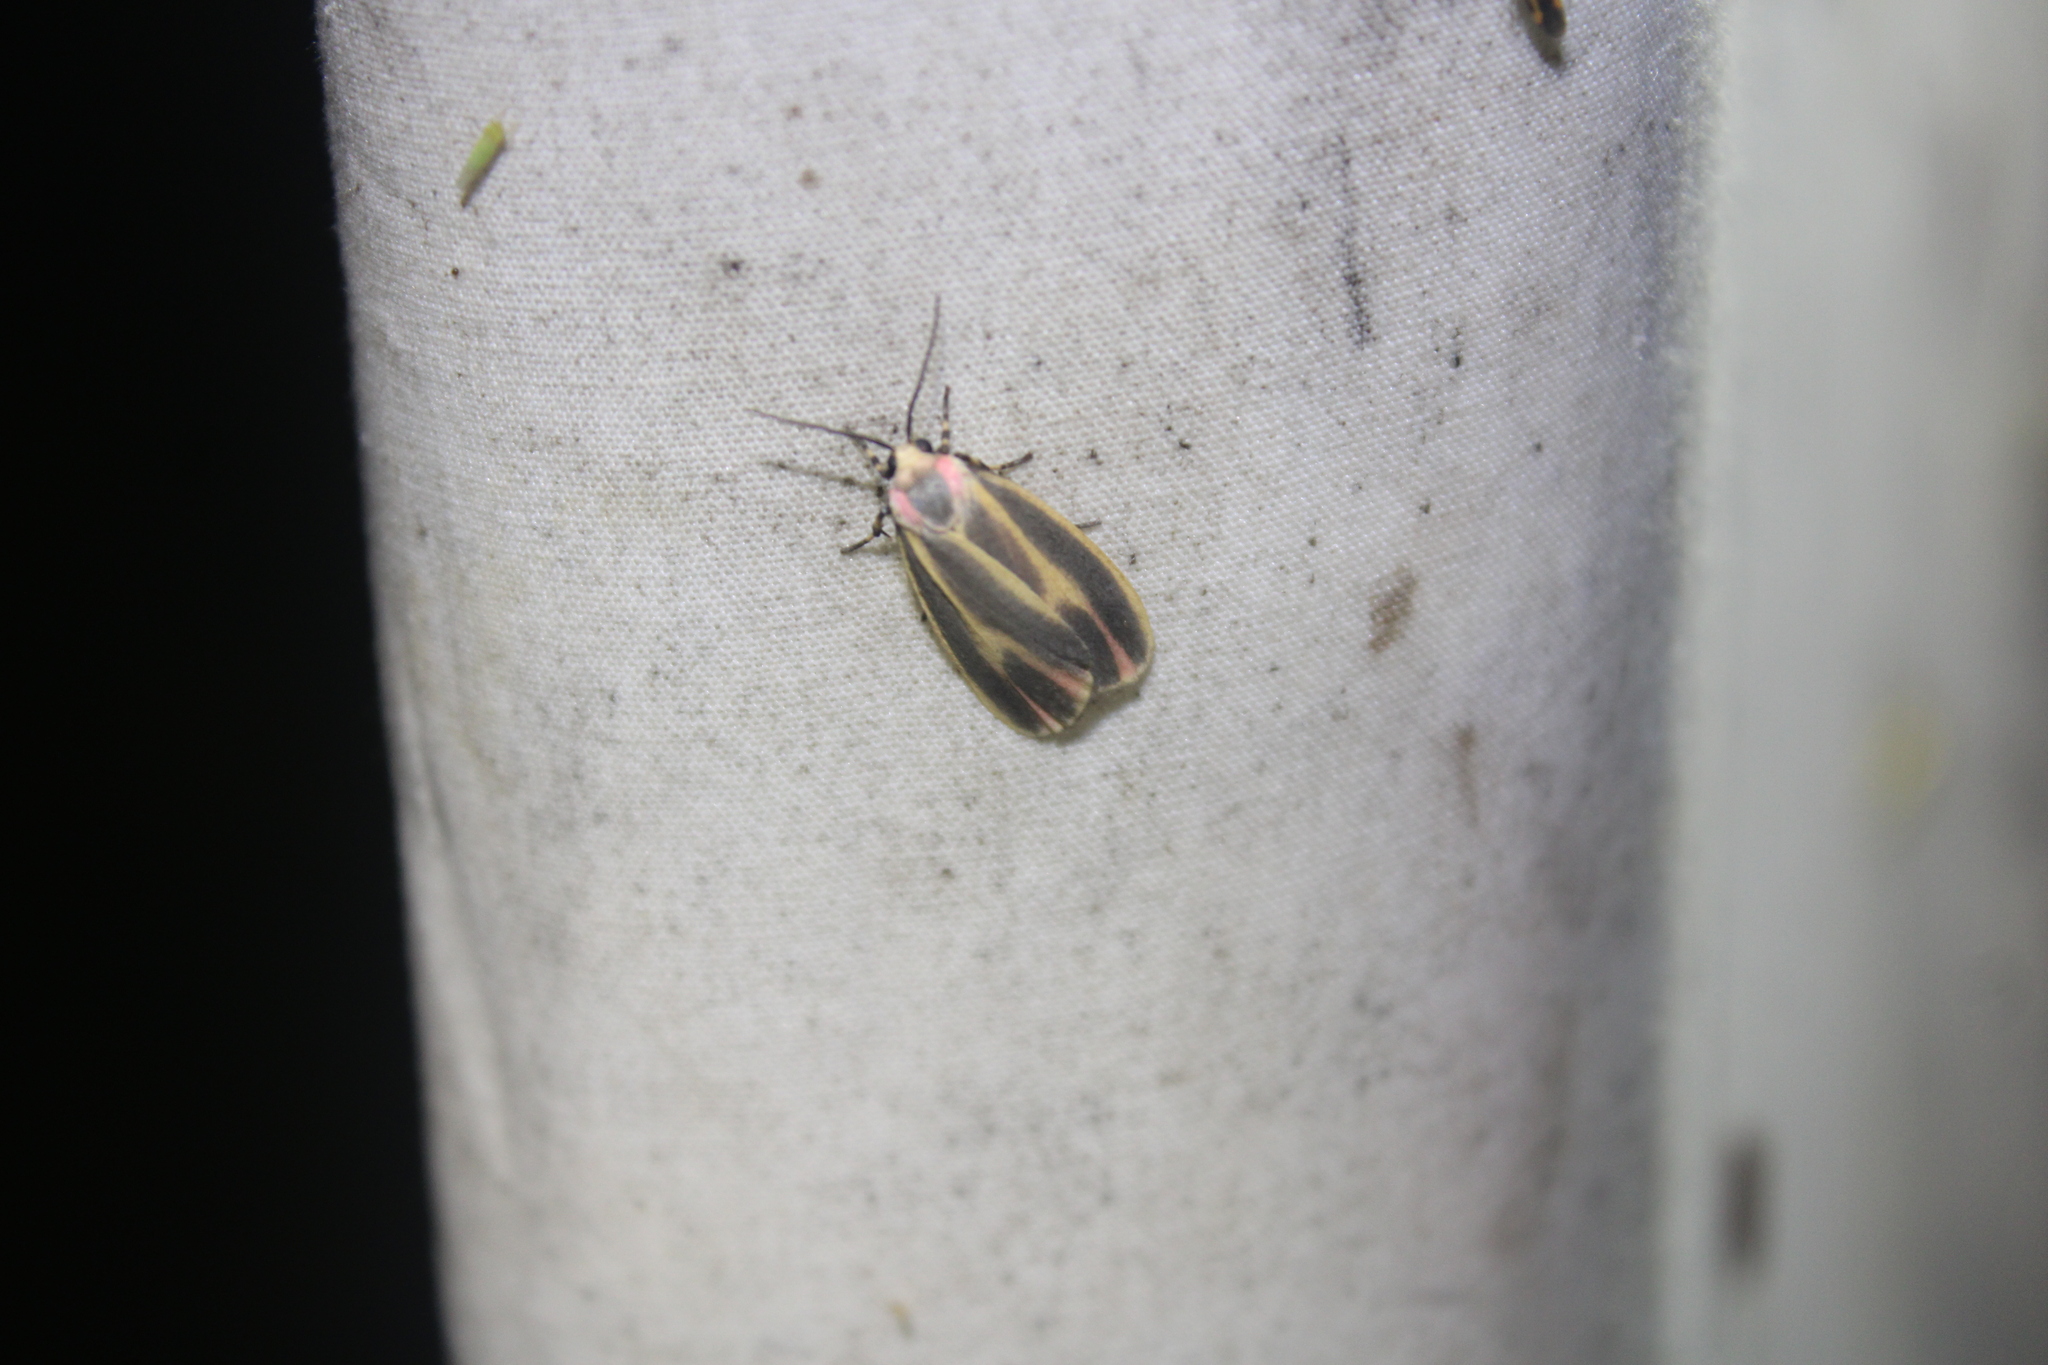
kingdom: Animalia
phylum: Arthropoda
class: Insecta
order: Lepidoptera
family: Erebidae
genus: Hypoprepia
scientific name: Hypoprepia fucosa
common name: Painted lichen moth
